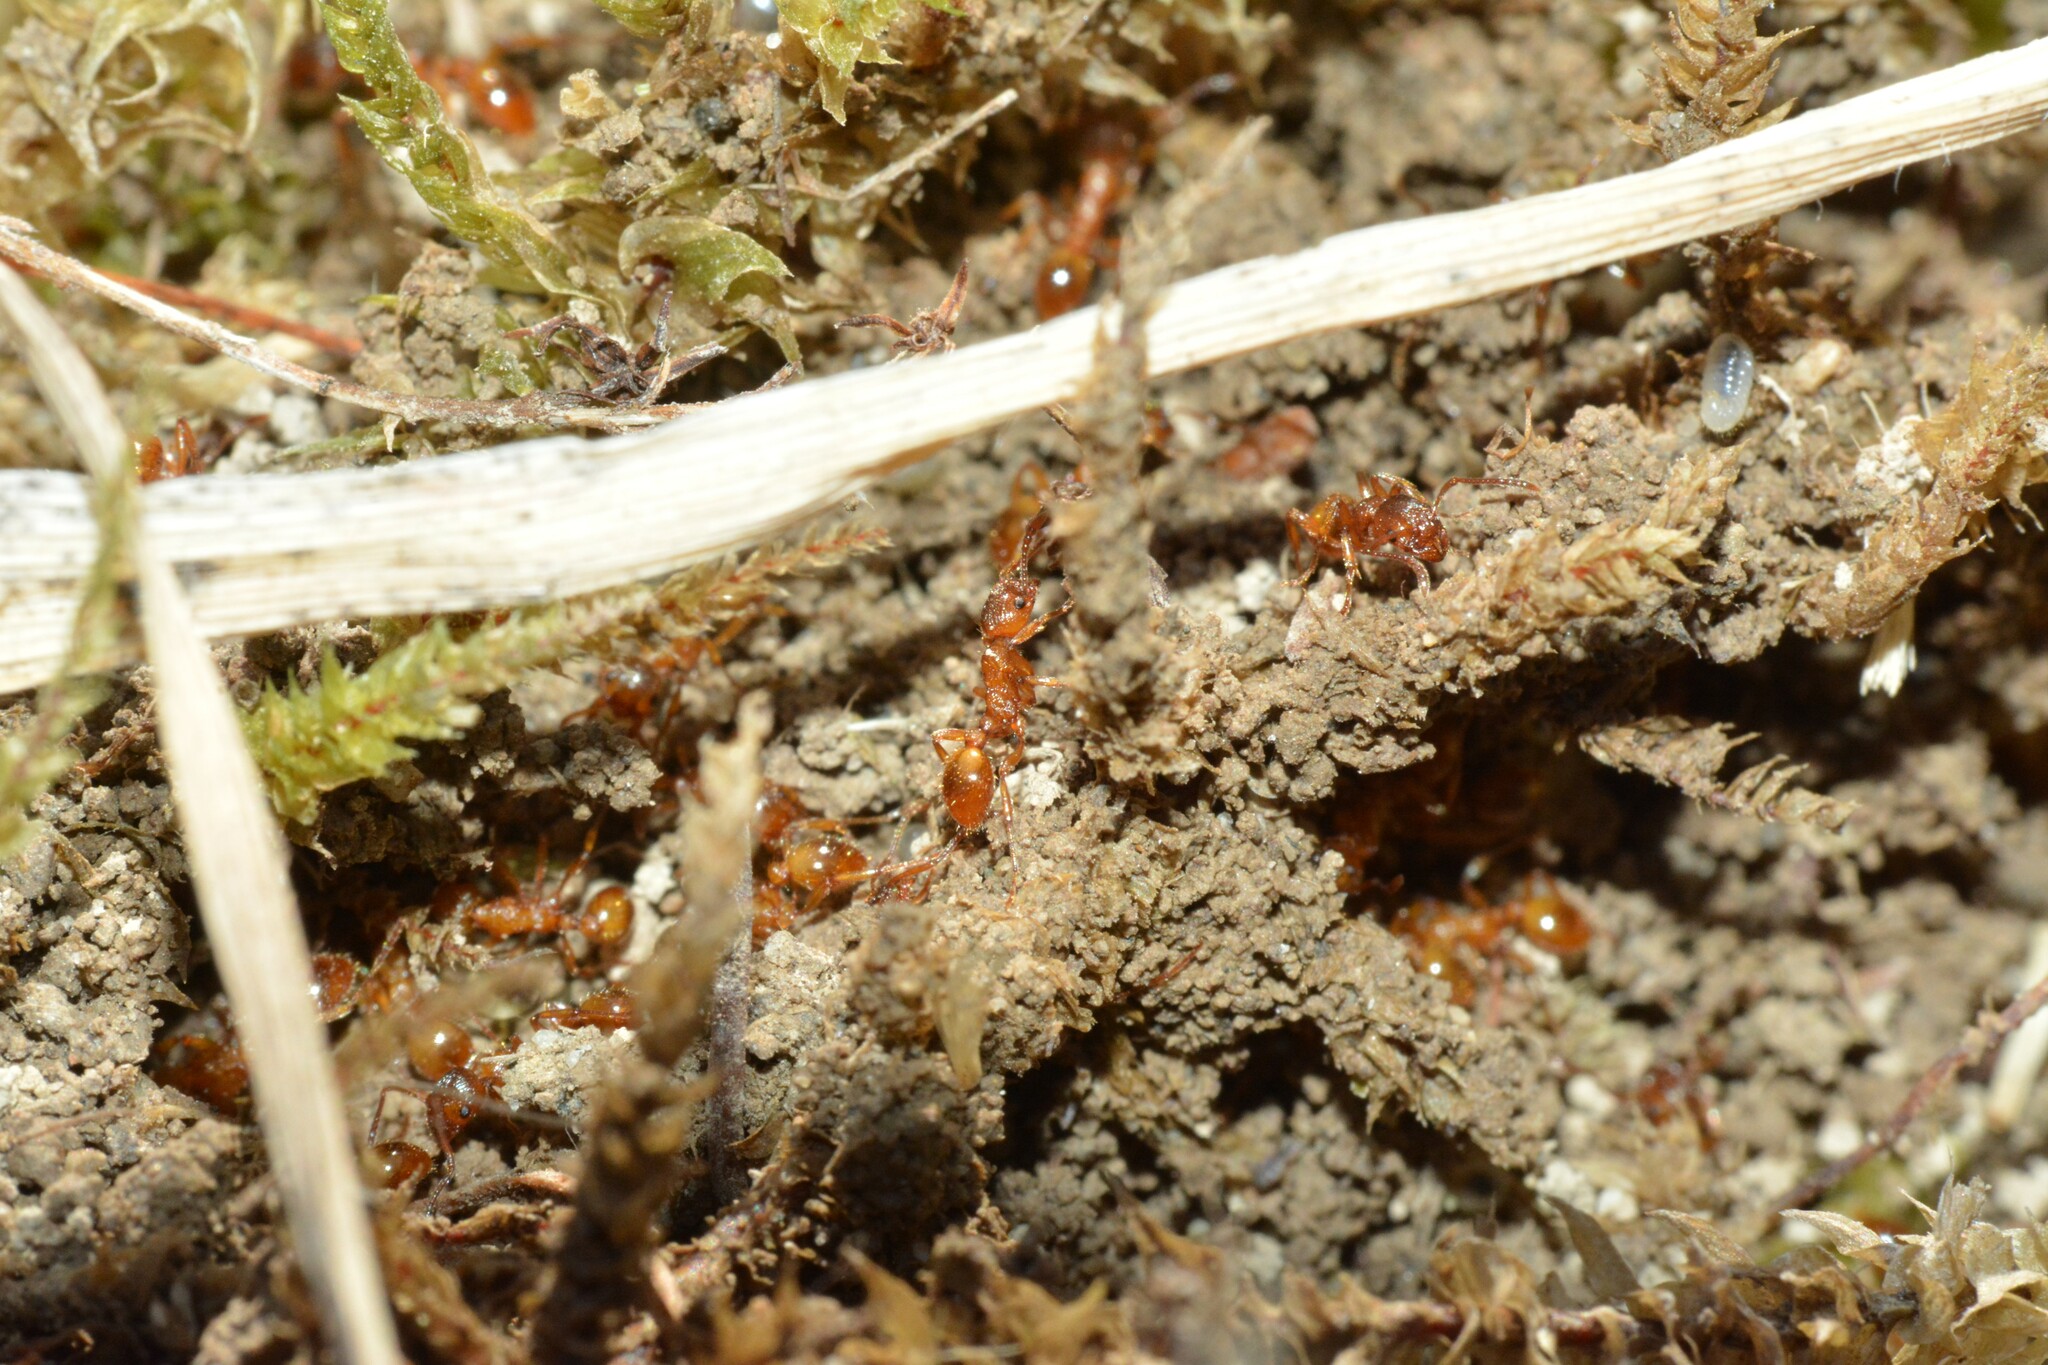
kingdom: Animalia
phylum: Arthropoda
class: Insecta
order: Hymenoptera
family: Formicidae
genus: Myrmica
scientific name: Myrmica rubra
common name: European fire ant
